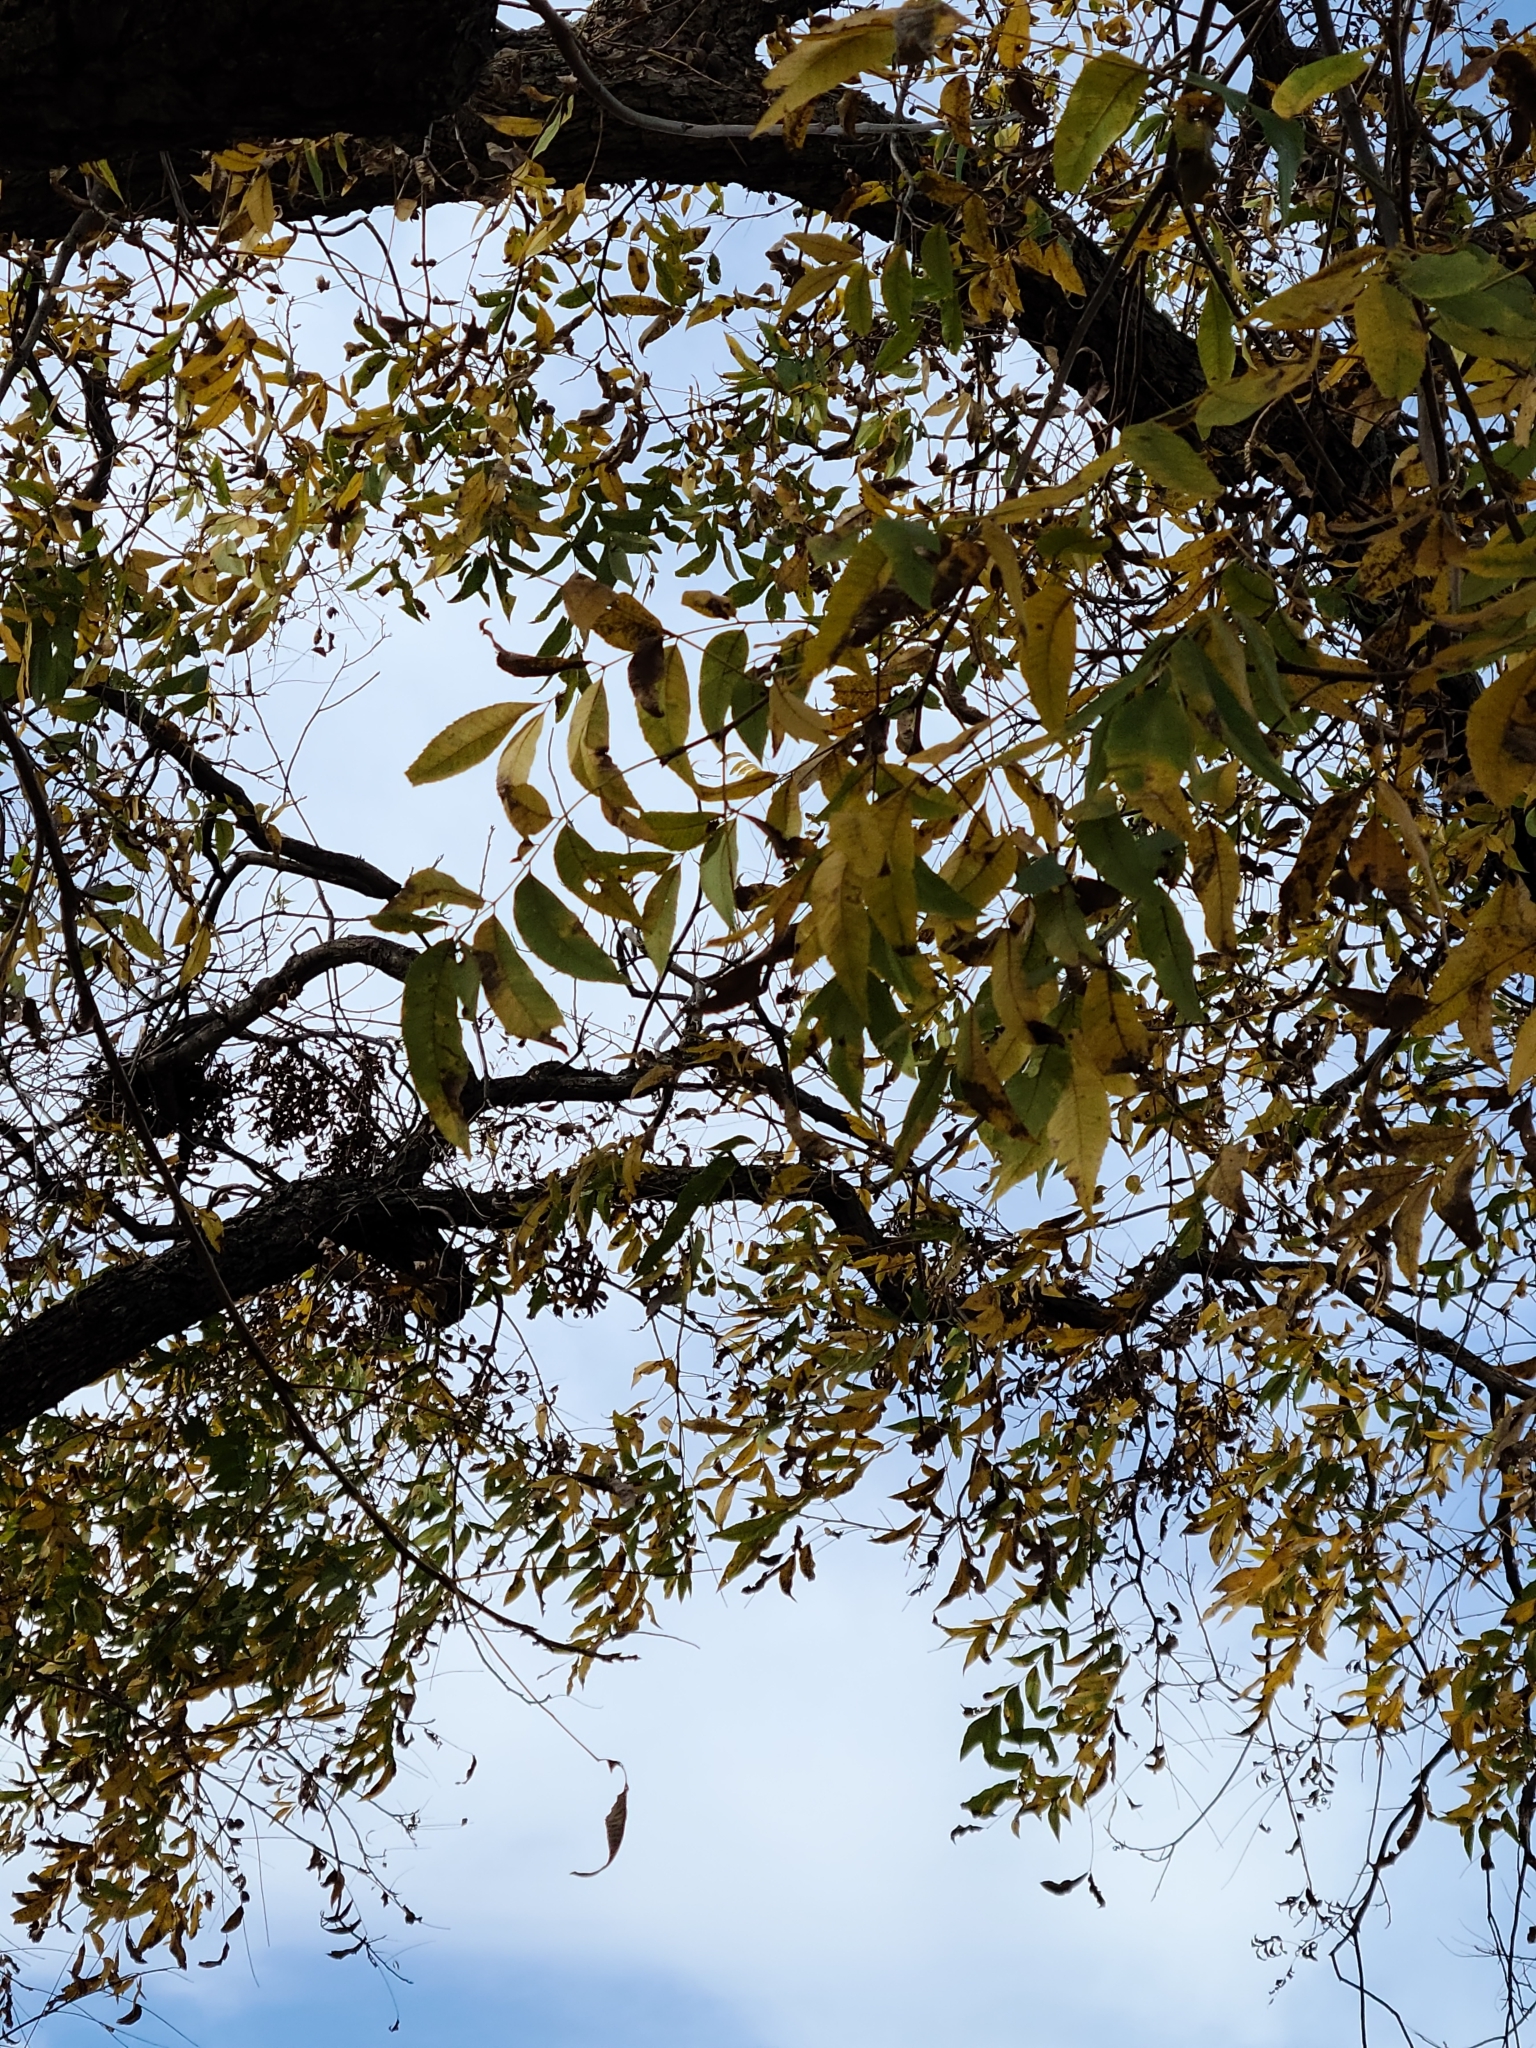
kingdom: Plantae
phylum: Tracheophyta
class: Magnoliopsida
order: Fagales
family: Juglandaceae
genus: Carya
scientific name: Carya illinoinensis
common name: Pecan
